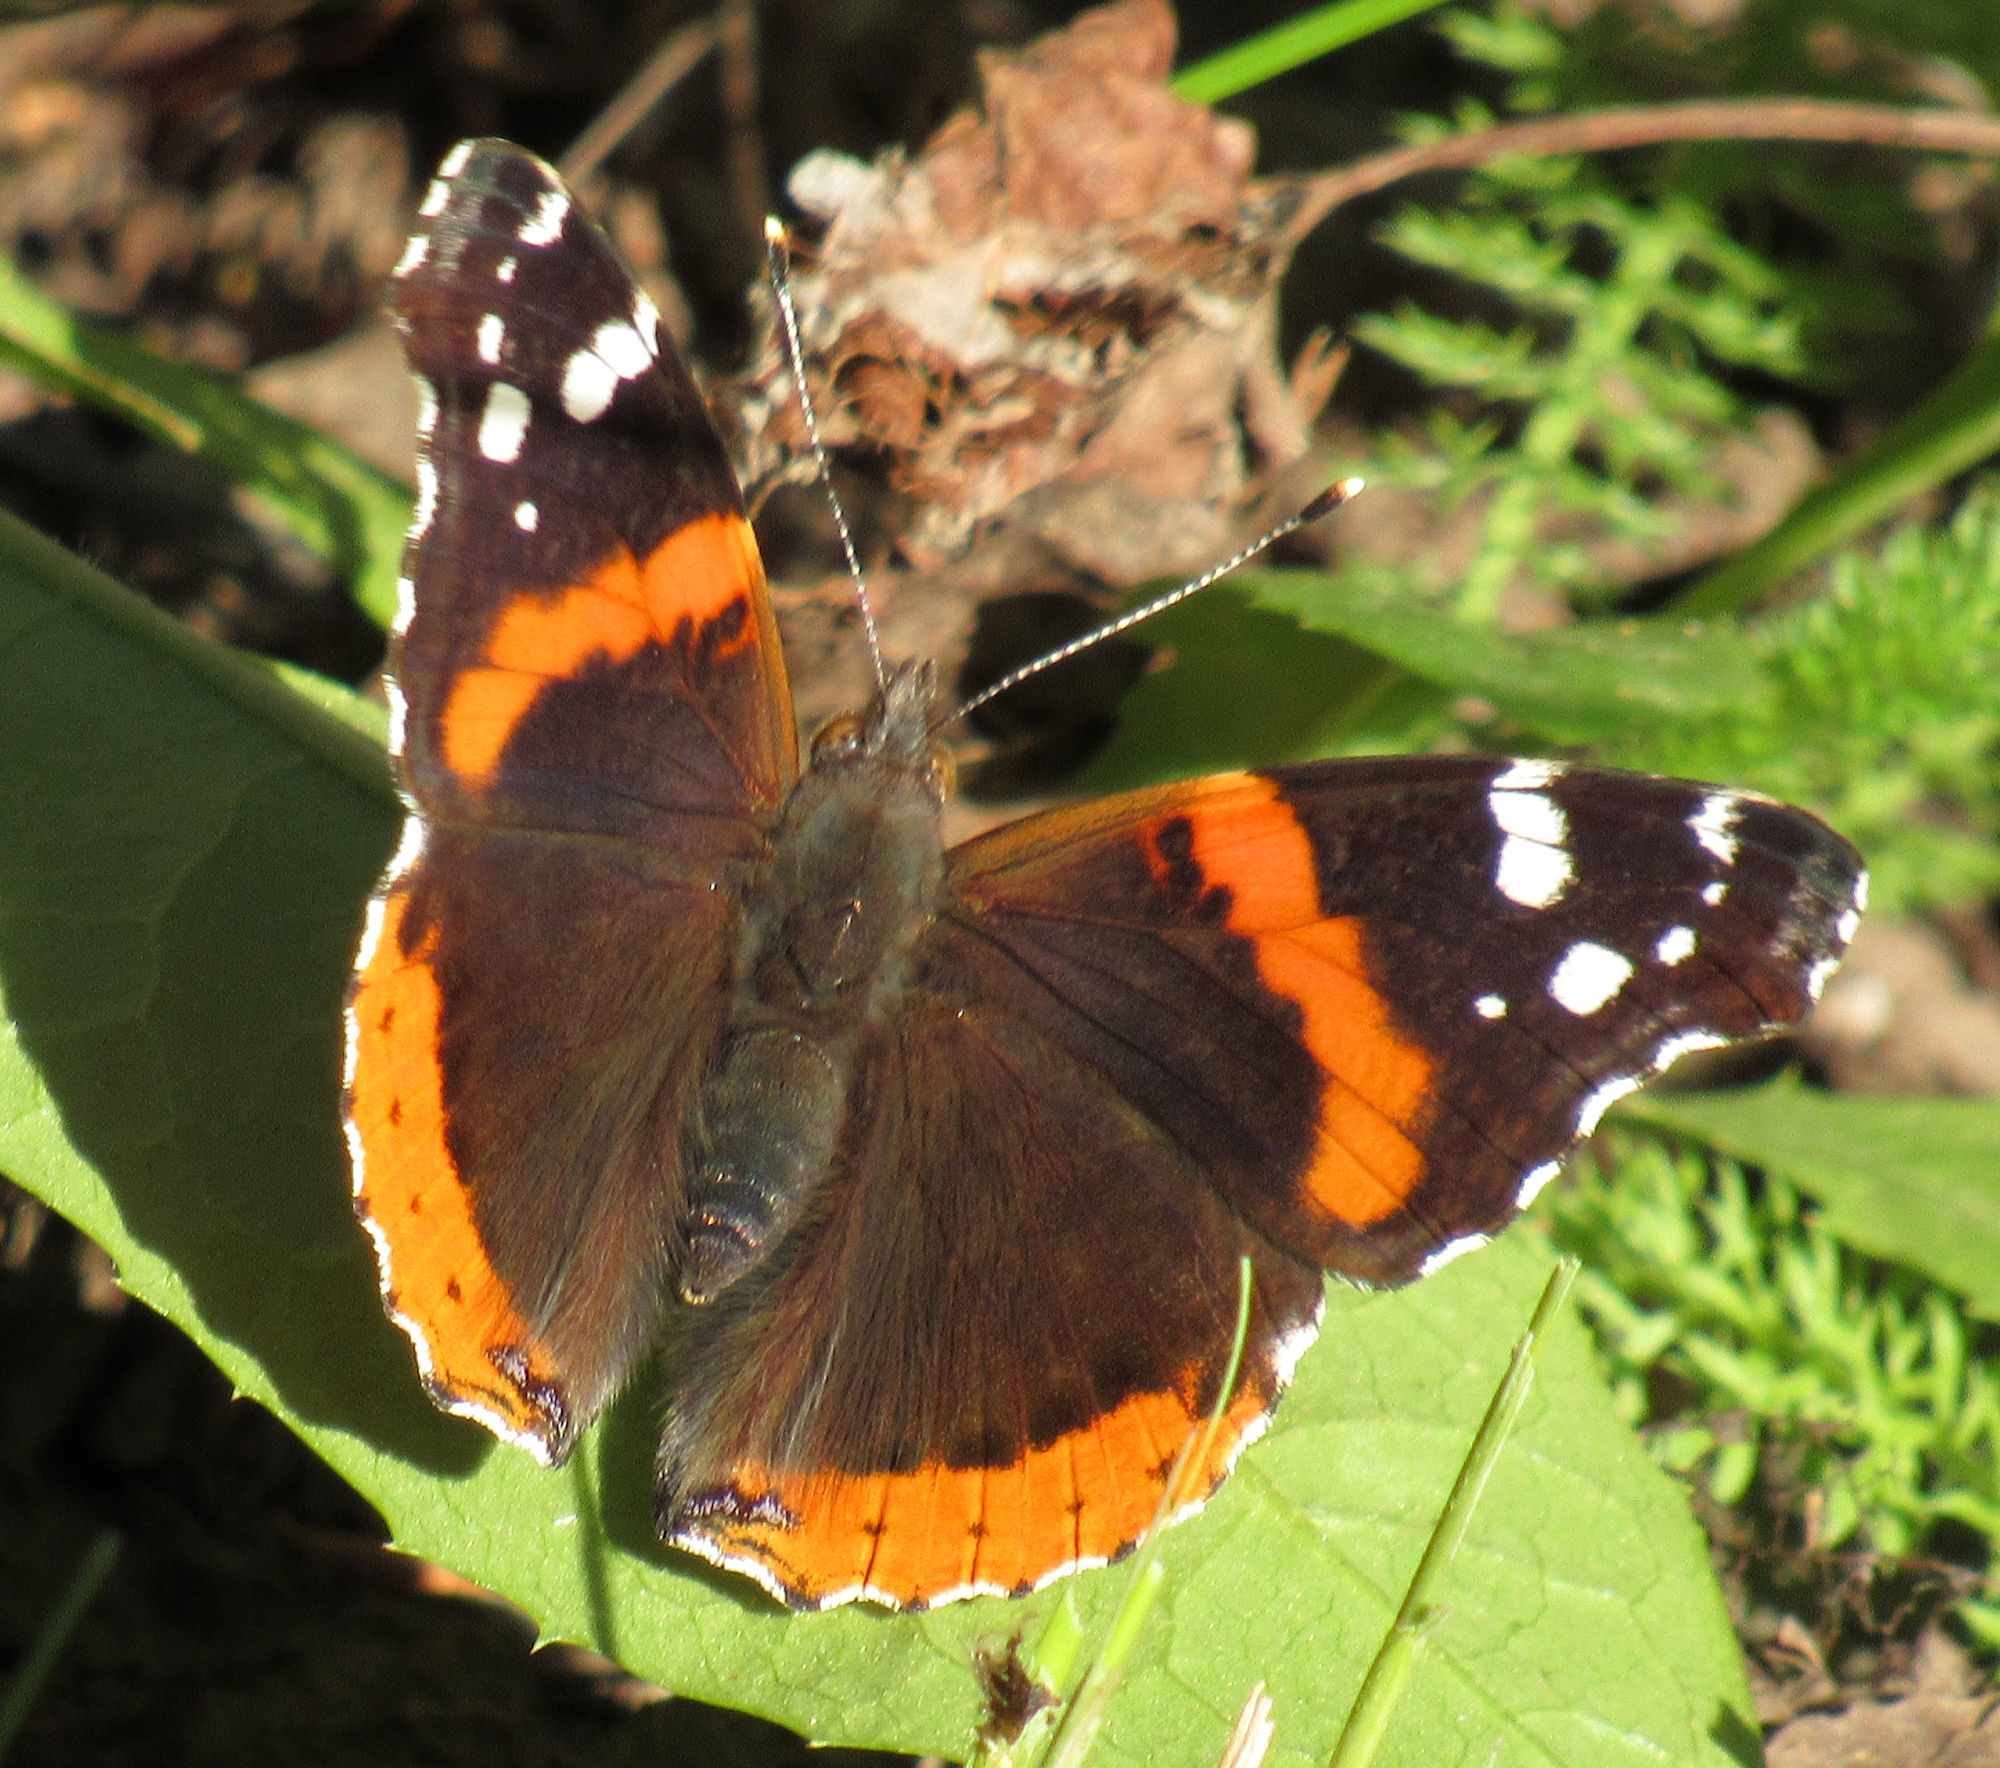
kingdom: Animalia
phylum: Arthropoda
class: Insecta
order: Lepidoptera
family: Nymphalidae
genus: Vanessa
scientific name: Vanessa atalanta
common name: Red admiral
